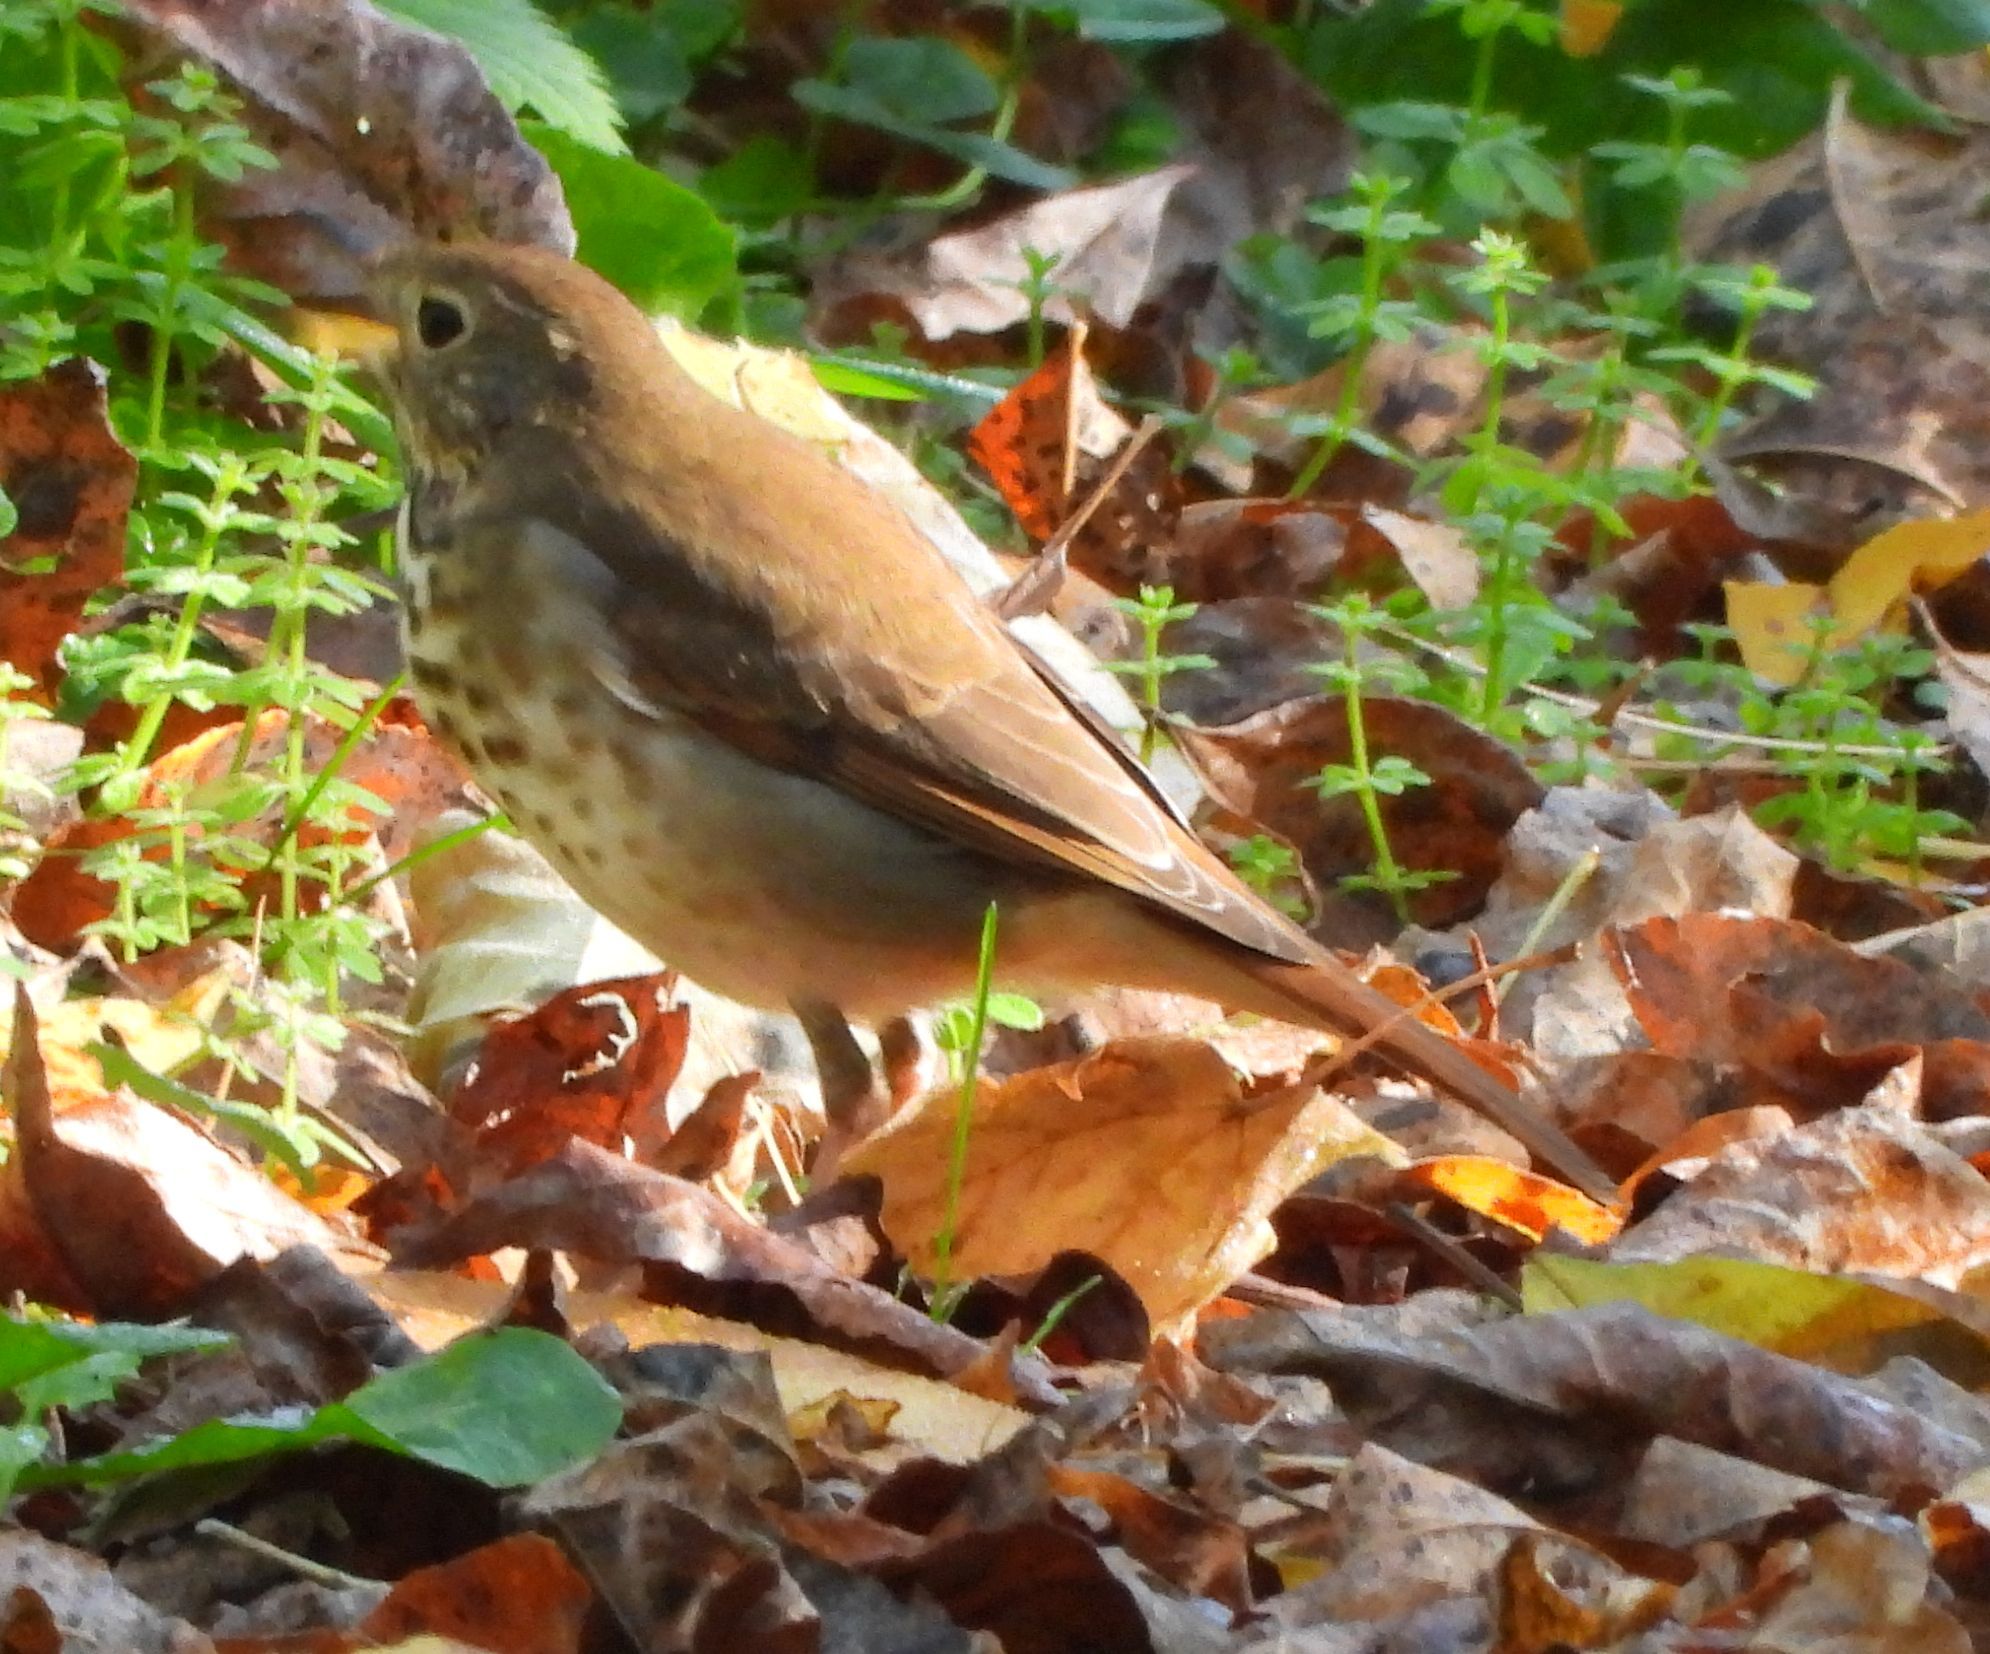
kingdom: Animalia
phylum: Chordata
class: Aves
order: Passeriformes
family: Turdidae
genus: Catharus
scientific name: Catharus guttatus
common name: Hermit thrush
